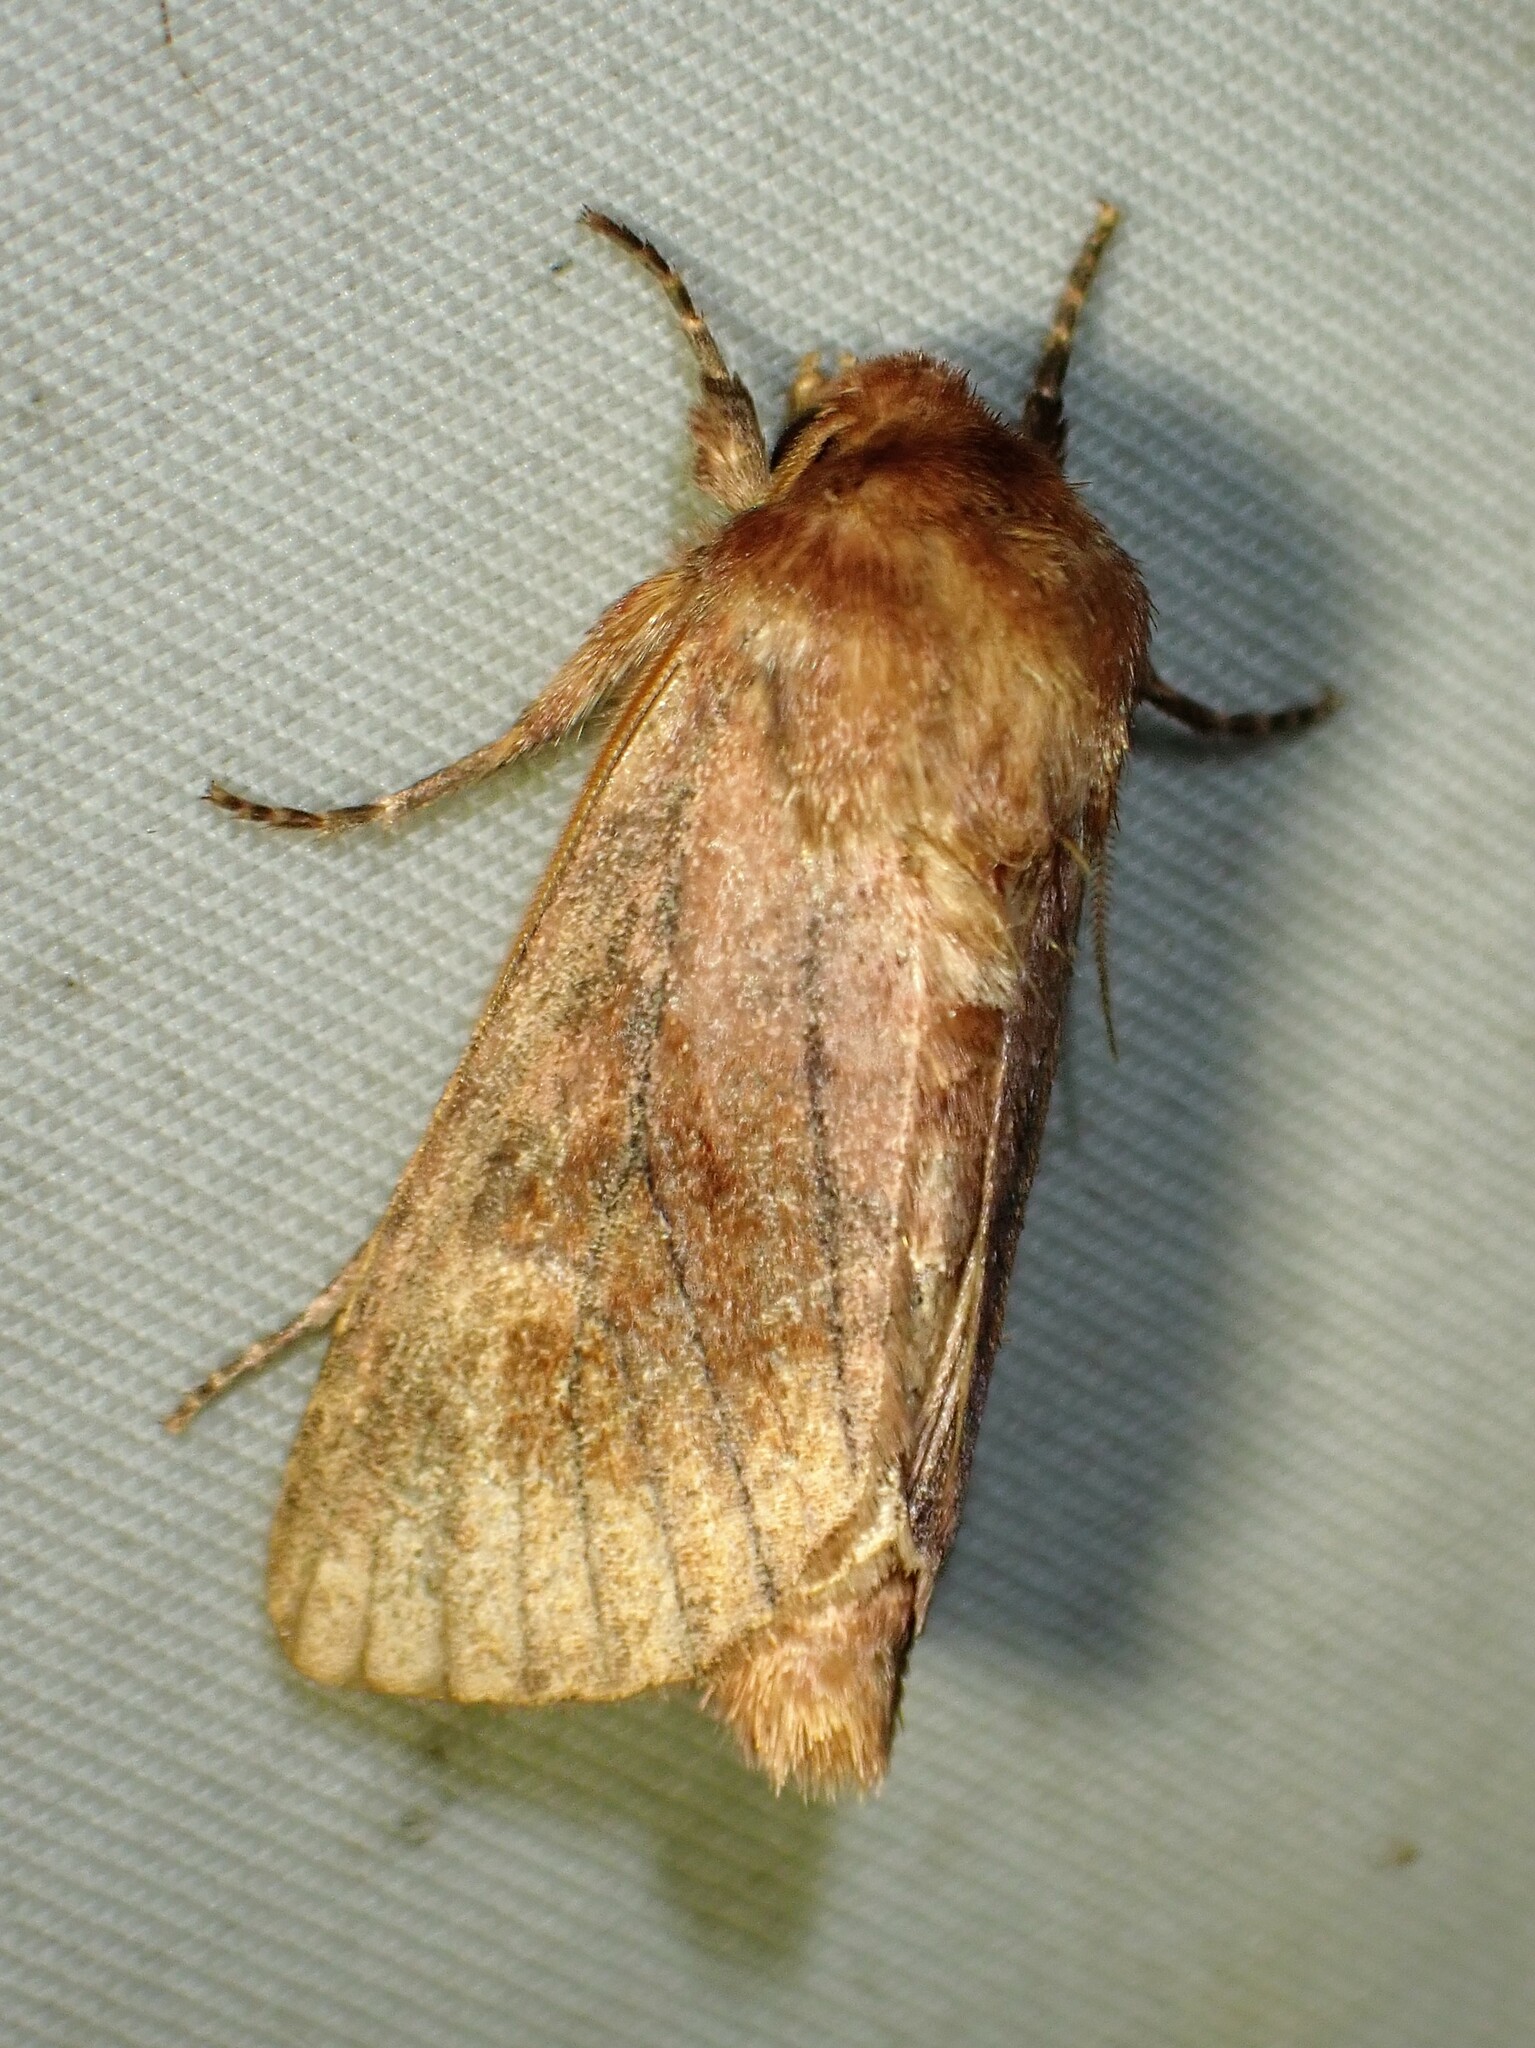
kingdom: Animalia
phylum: Arthropoda
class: Insecta
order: Lepidoptera
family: Noctuidae
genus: Nephelodes
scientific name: Nephelodes minians
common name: Bronzed cutworm
